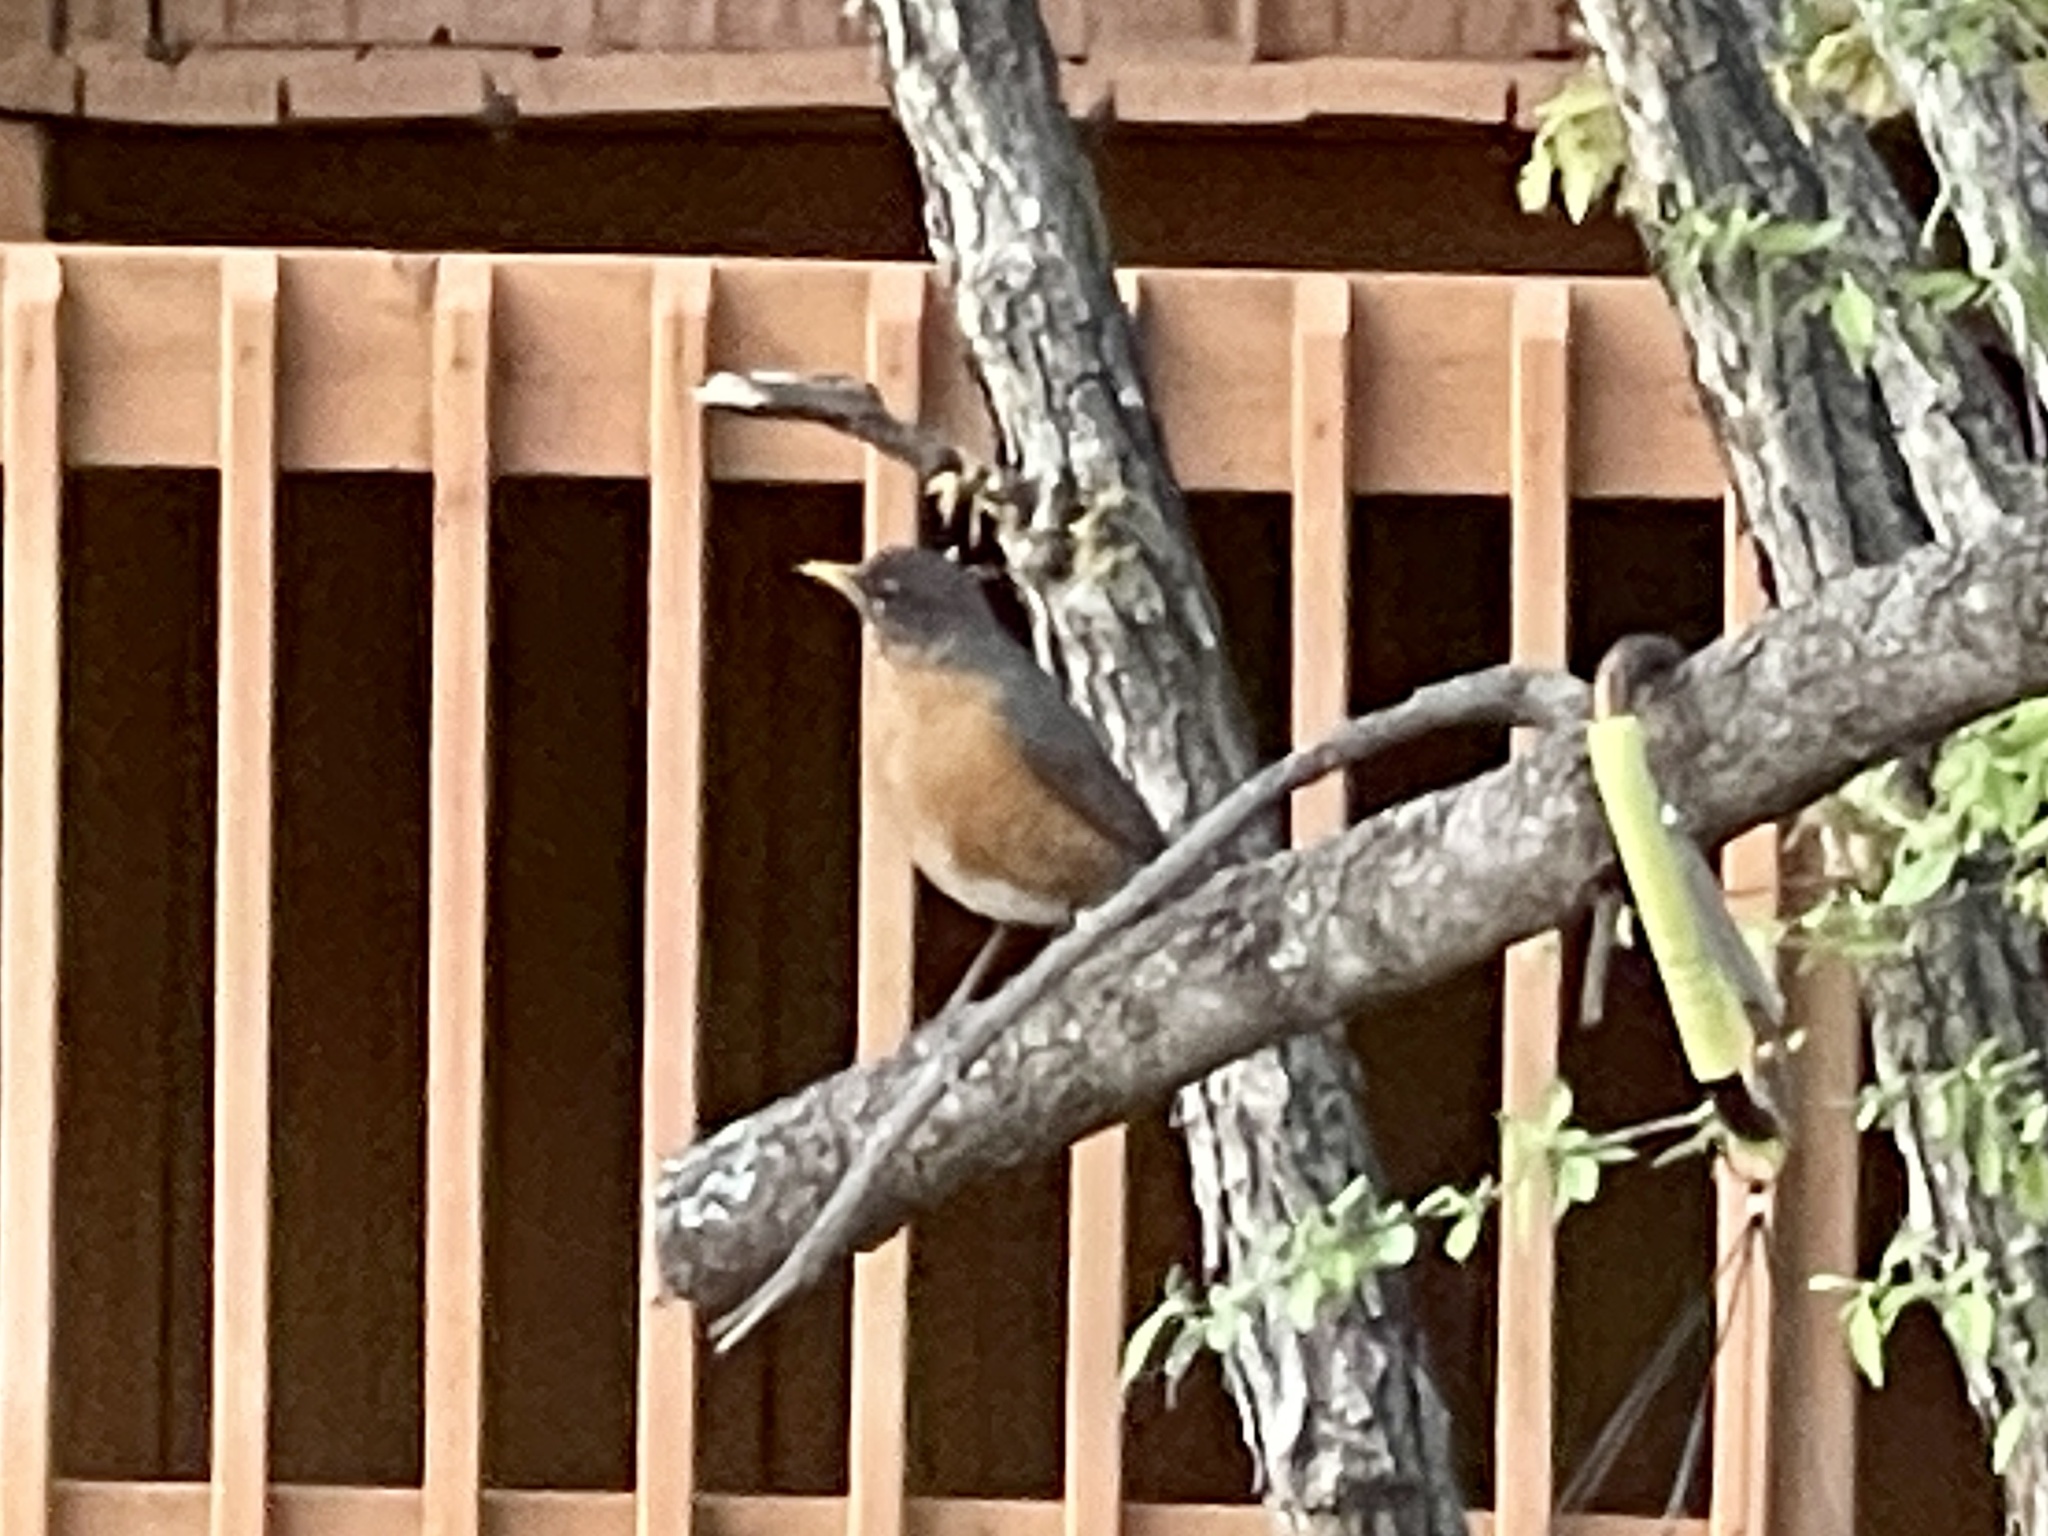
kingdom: Animalia
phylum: Chordata
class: Aves
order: Passeriformes
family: Turdidae
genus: Turdus
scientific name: Turdus migratorius
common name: American robin
